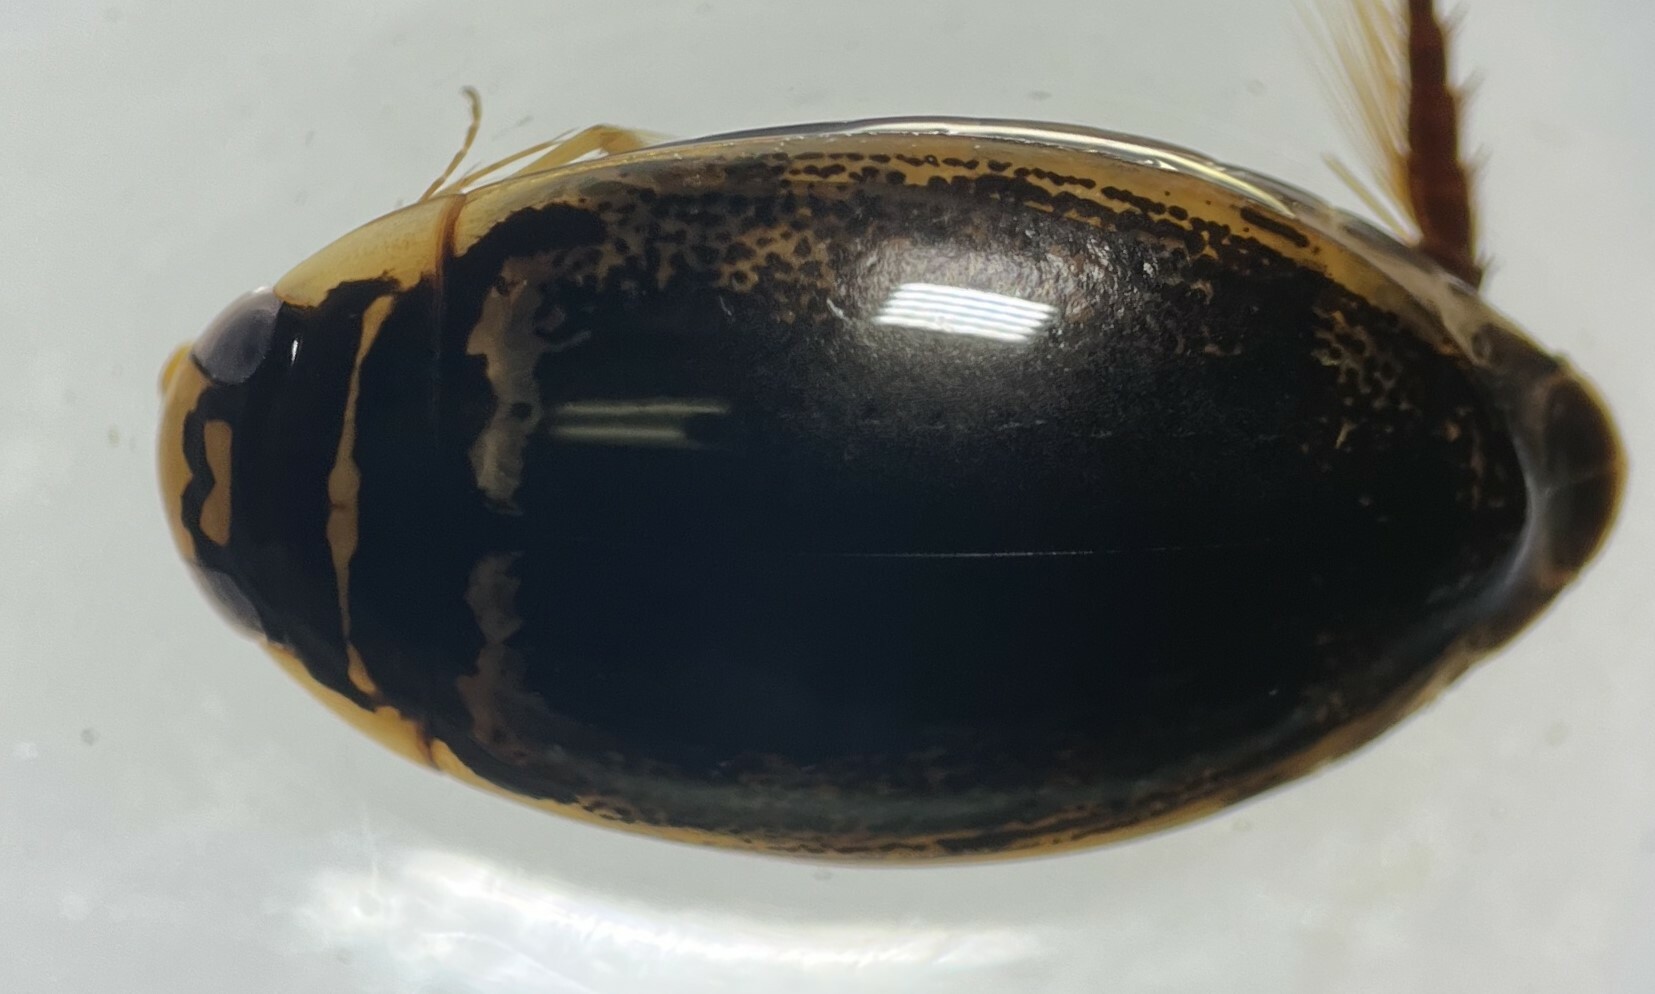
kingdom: Animalia
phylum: Arthropoda
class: Insecta
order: Coleoptera
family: Dytiscidae
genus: Thermonectus
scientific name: Thermonectus basillaris
